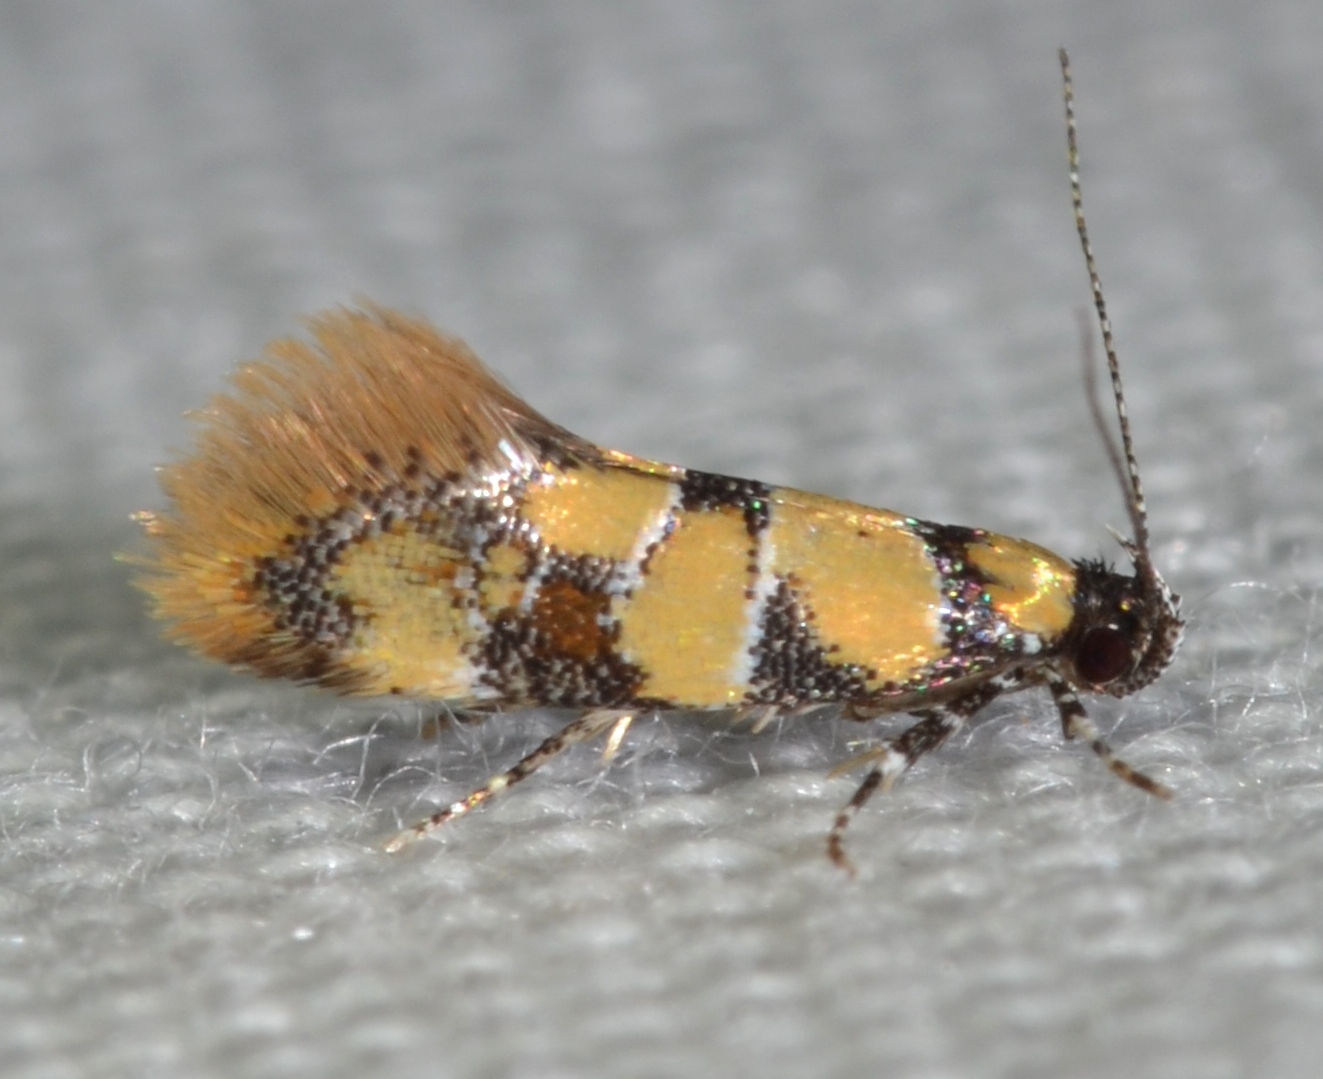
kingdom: Animalia
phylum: Arthropoda
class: Insecta
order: Lepidoptera
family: Oecophoridae
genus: Decantha
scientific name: Decantha borkhausenii
